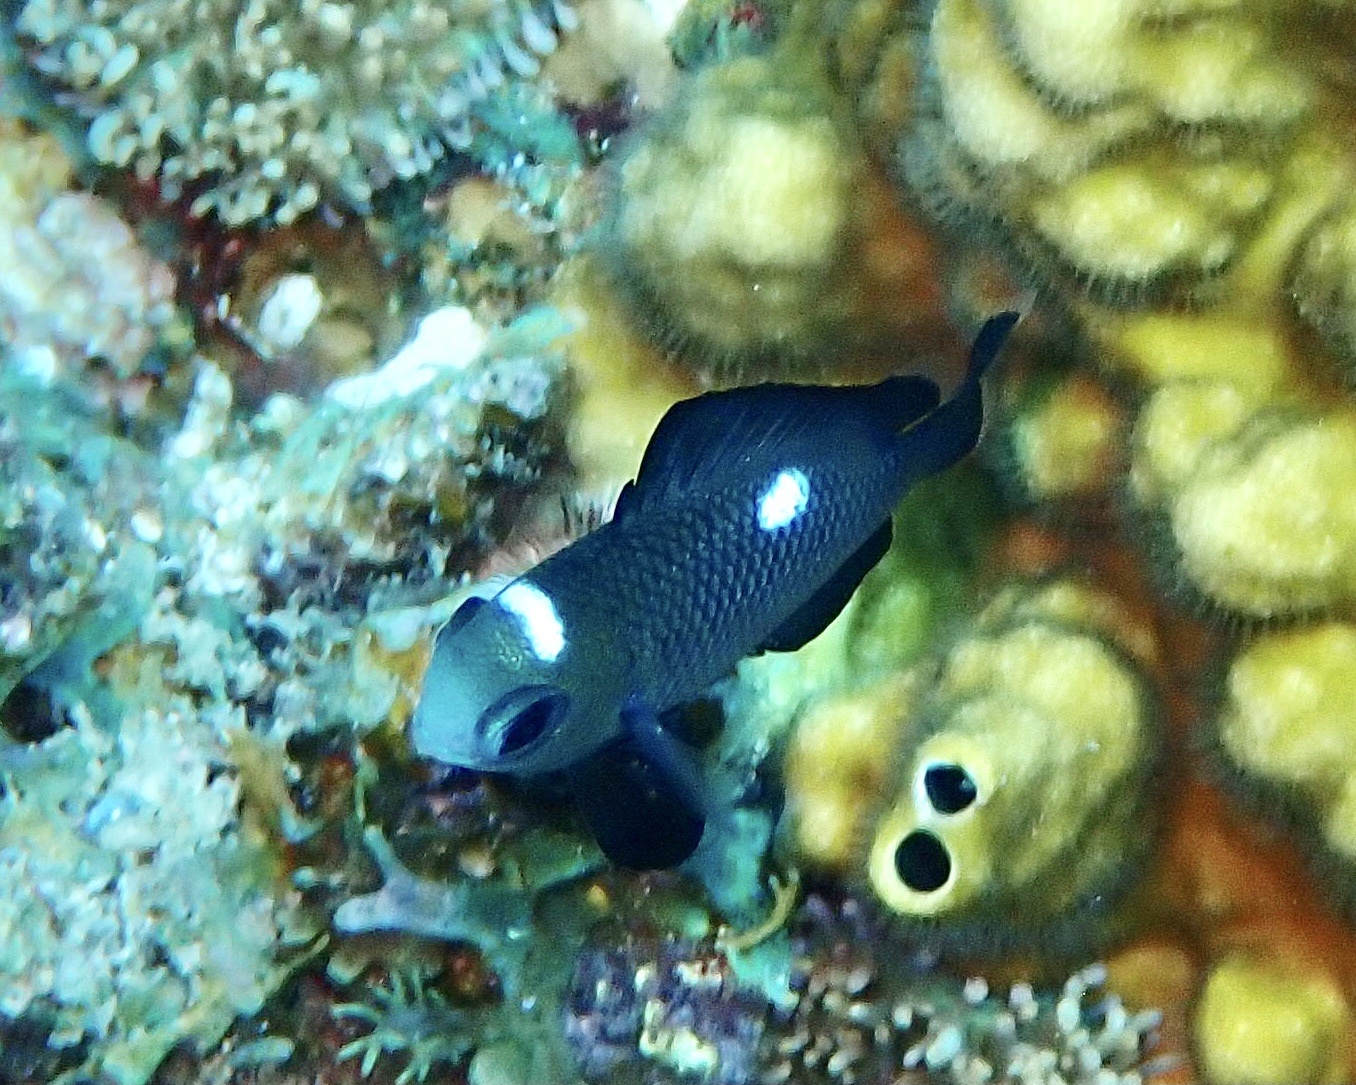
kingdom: Animalia
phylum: Chordata
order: Perciformes
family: Pomacentridae
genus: Dascyllus
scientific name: Dascyllus trimaculatus
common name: Threespot dascyllus
